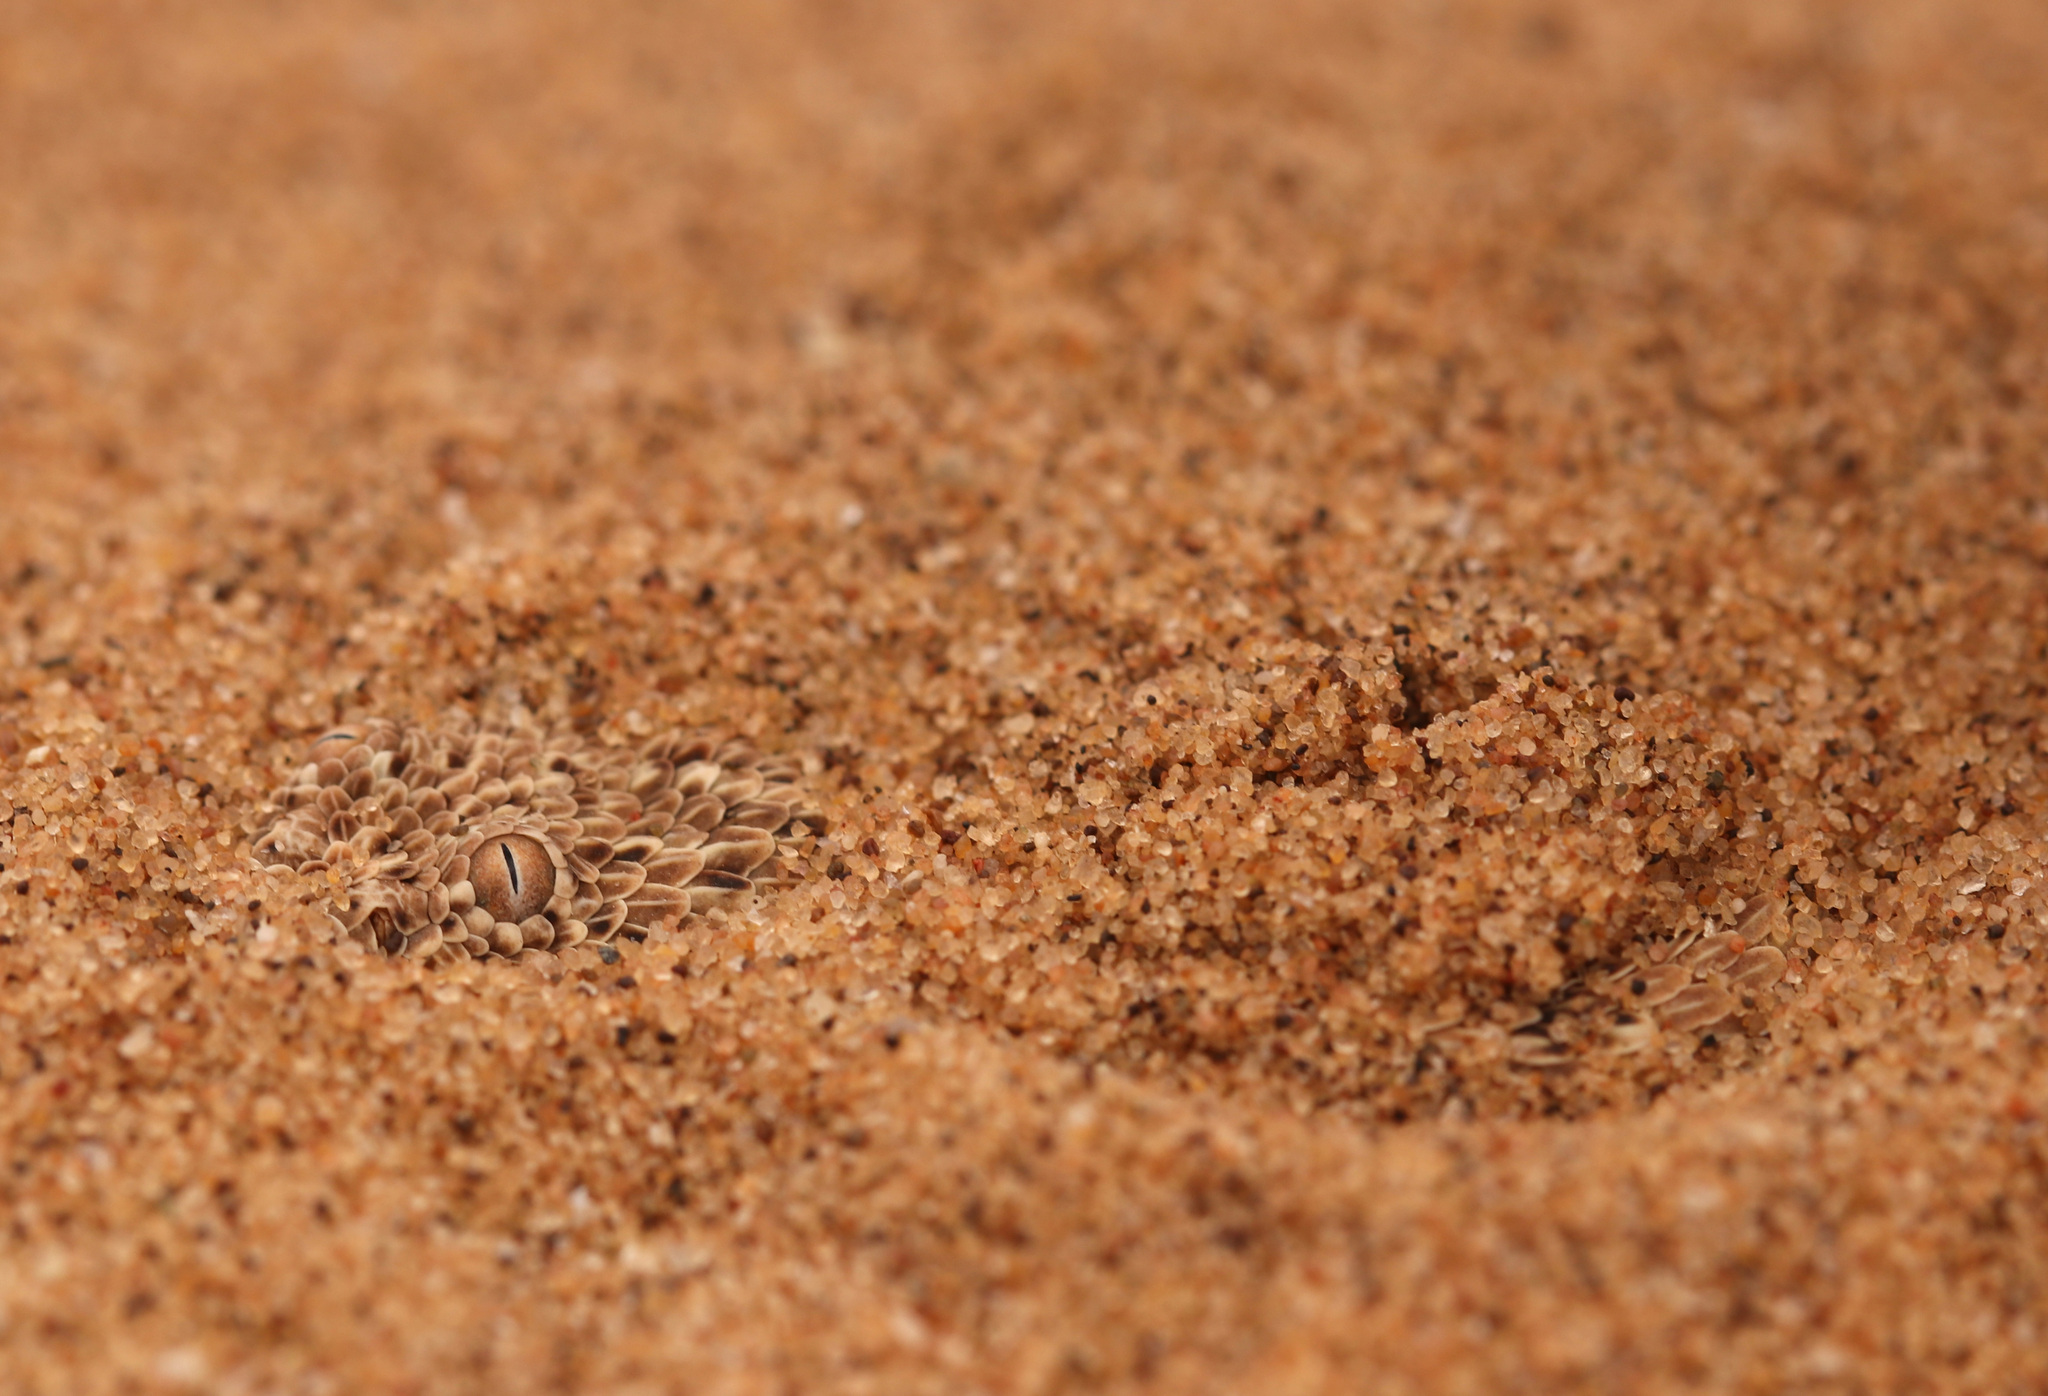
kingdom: Animalia
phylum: Chordata
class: Squamata
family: Viperidae
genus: Bitis
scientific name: Bitis peringueyi
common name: Dwarf puff adder
